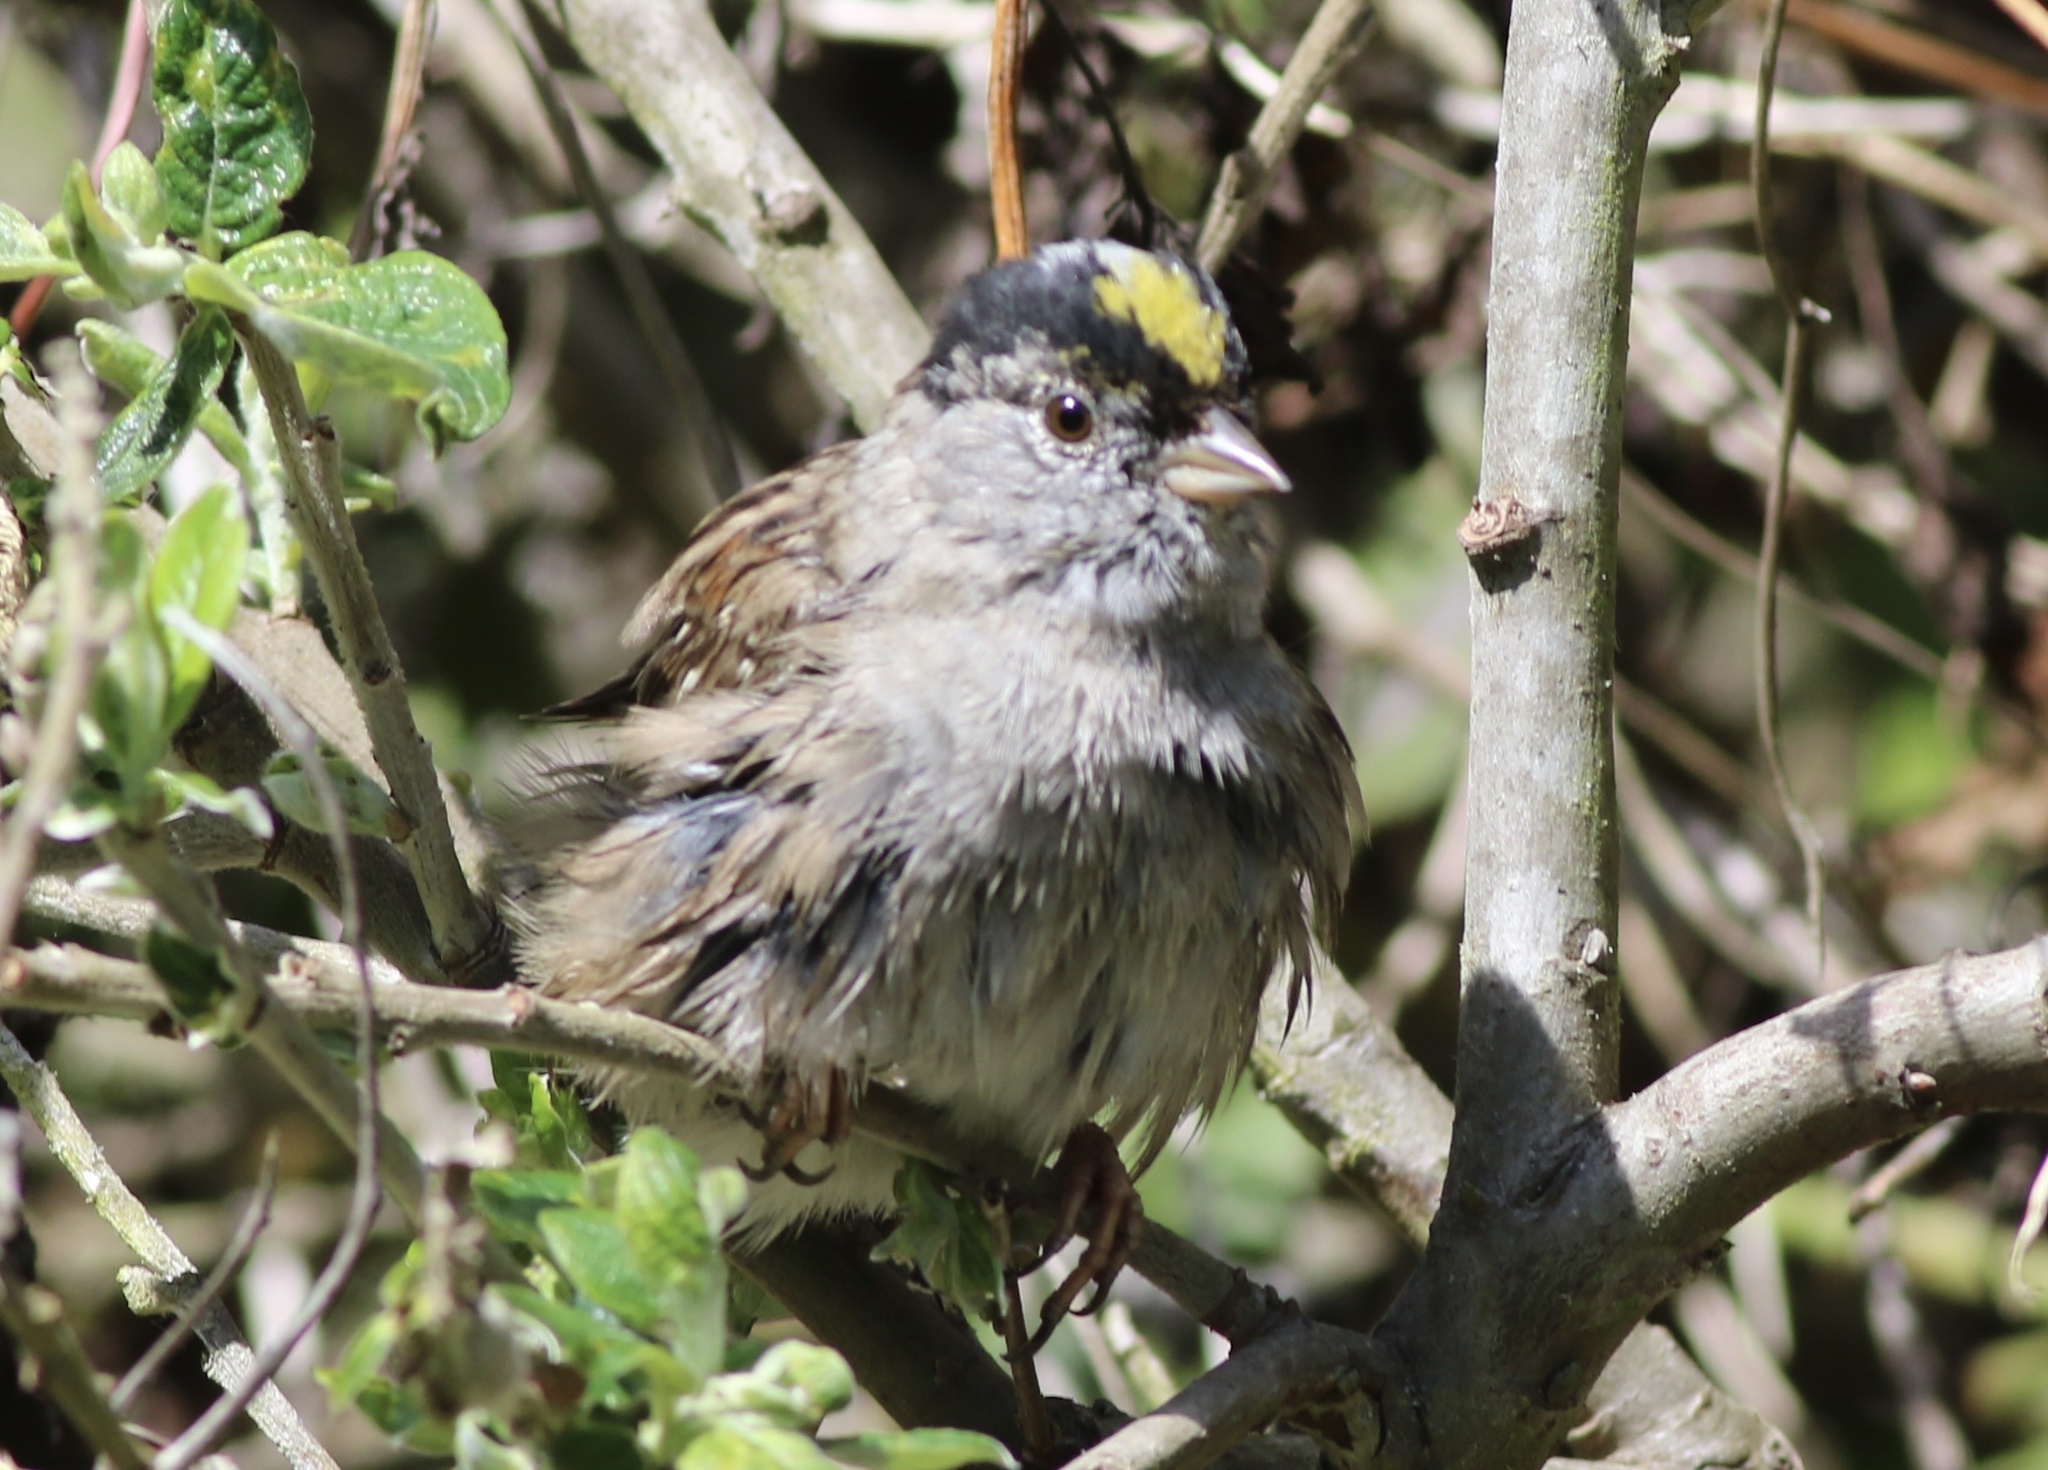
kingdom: Animalia
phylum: Chordata
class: Aves
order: Passeriformes
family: Passerellidae
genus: Zonotrichia
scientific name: Zonotrichia atricapilla
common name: Golden-crowned sparrow
